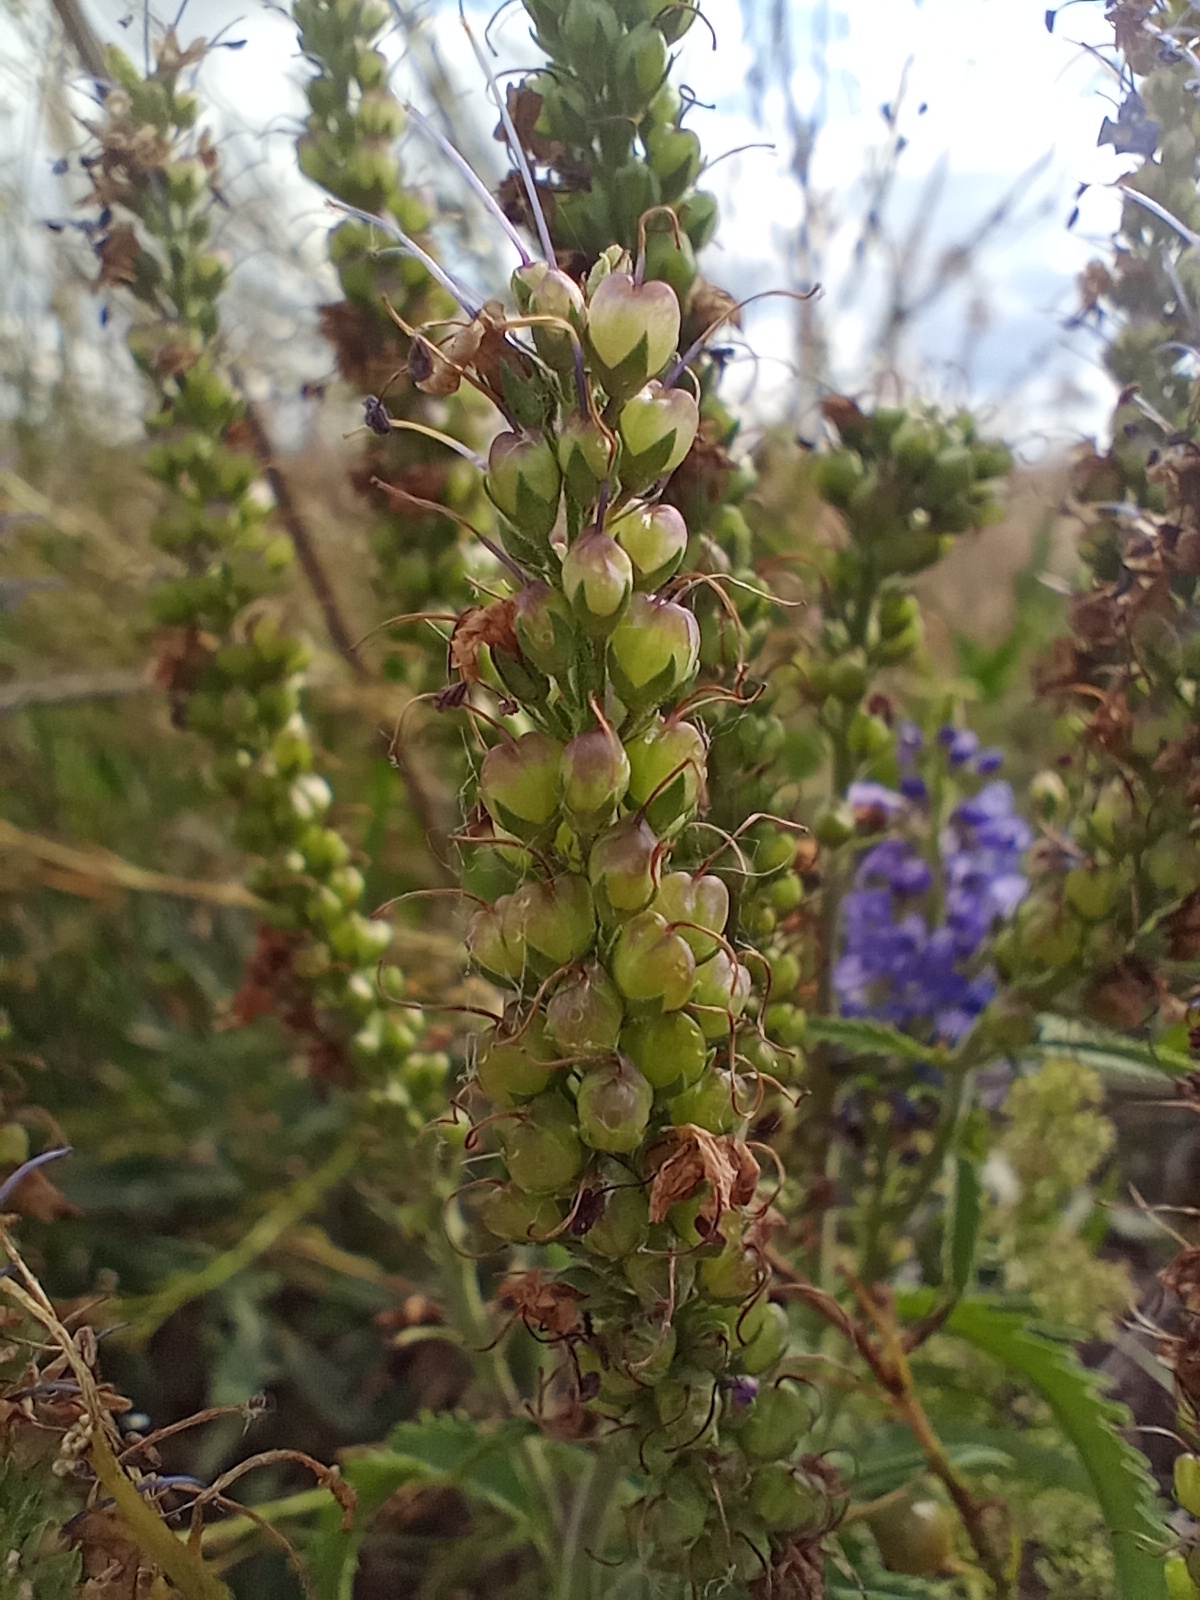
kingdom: Plantae
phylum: Tracheophyta
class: Magnoliopsida
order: Lamiales
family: Plantaginaceae
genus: Veronica
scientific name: Veronica longifolia
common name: Garden speedwell
